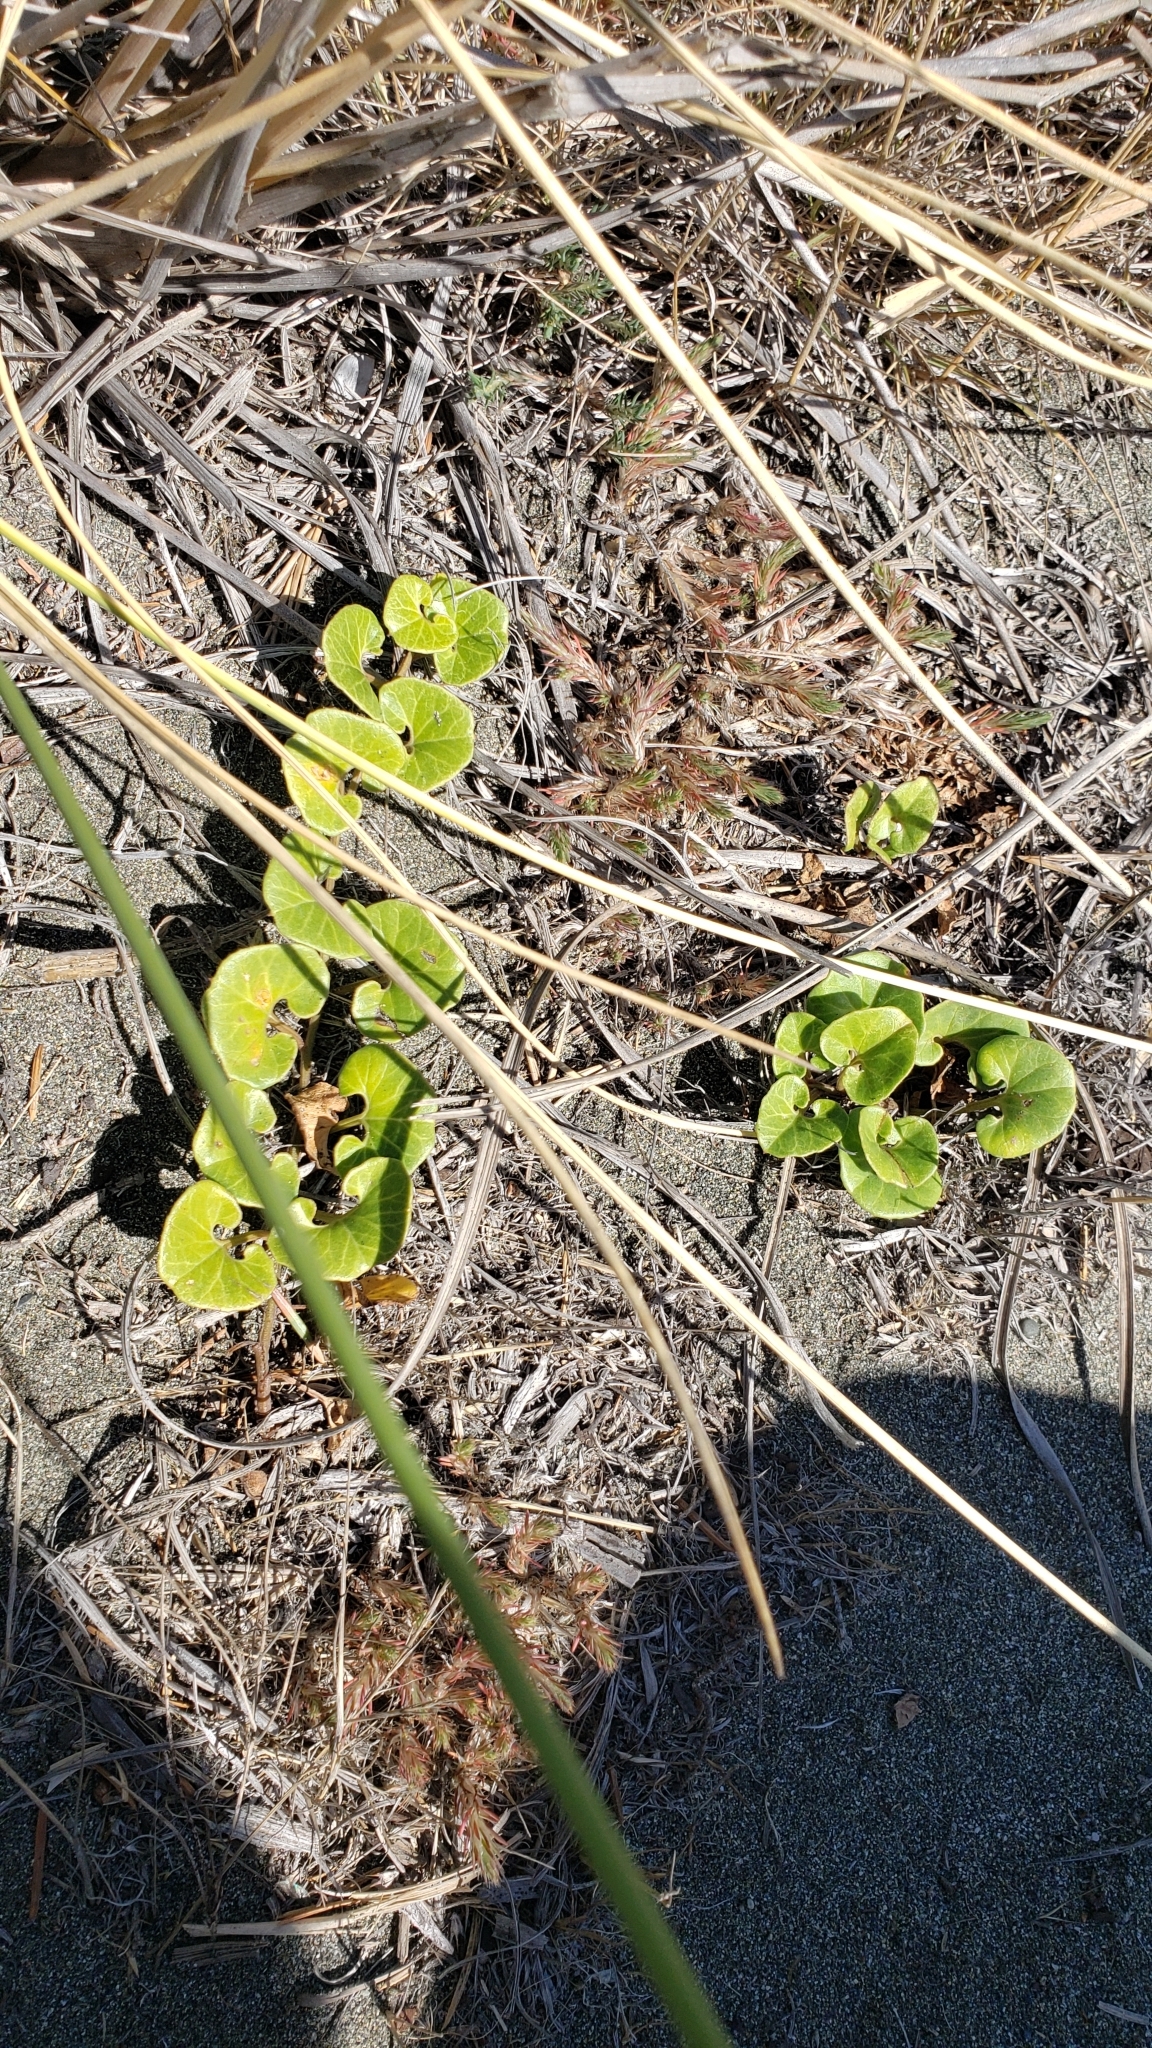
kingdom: Plantae
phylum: Tracheophyta
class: Magnoliopsida
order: Solanales
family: Convolvulaceae
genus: Calystegia
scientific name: Calystegia soldanella
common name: Sea bindweed
